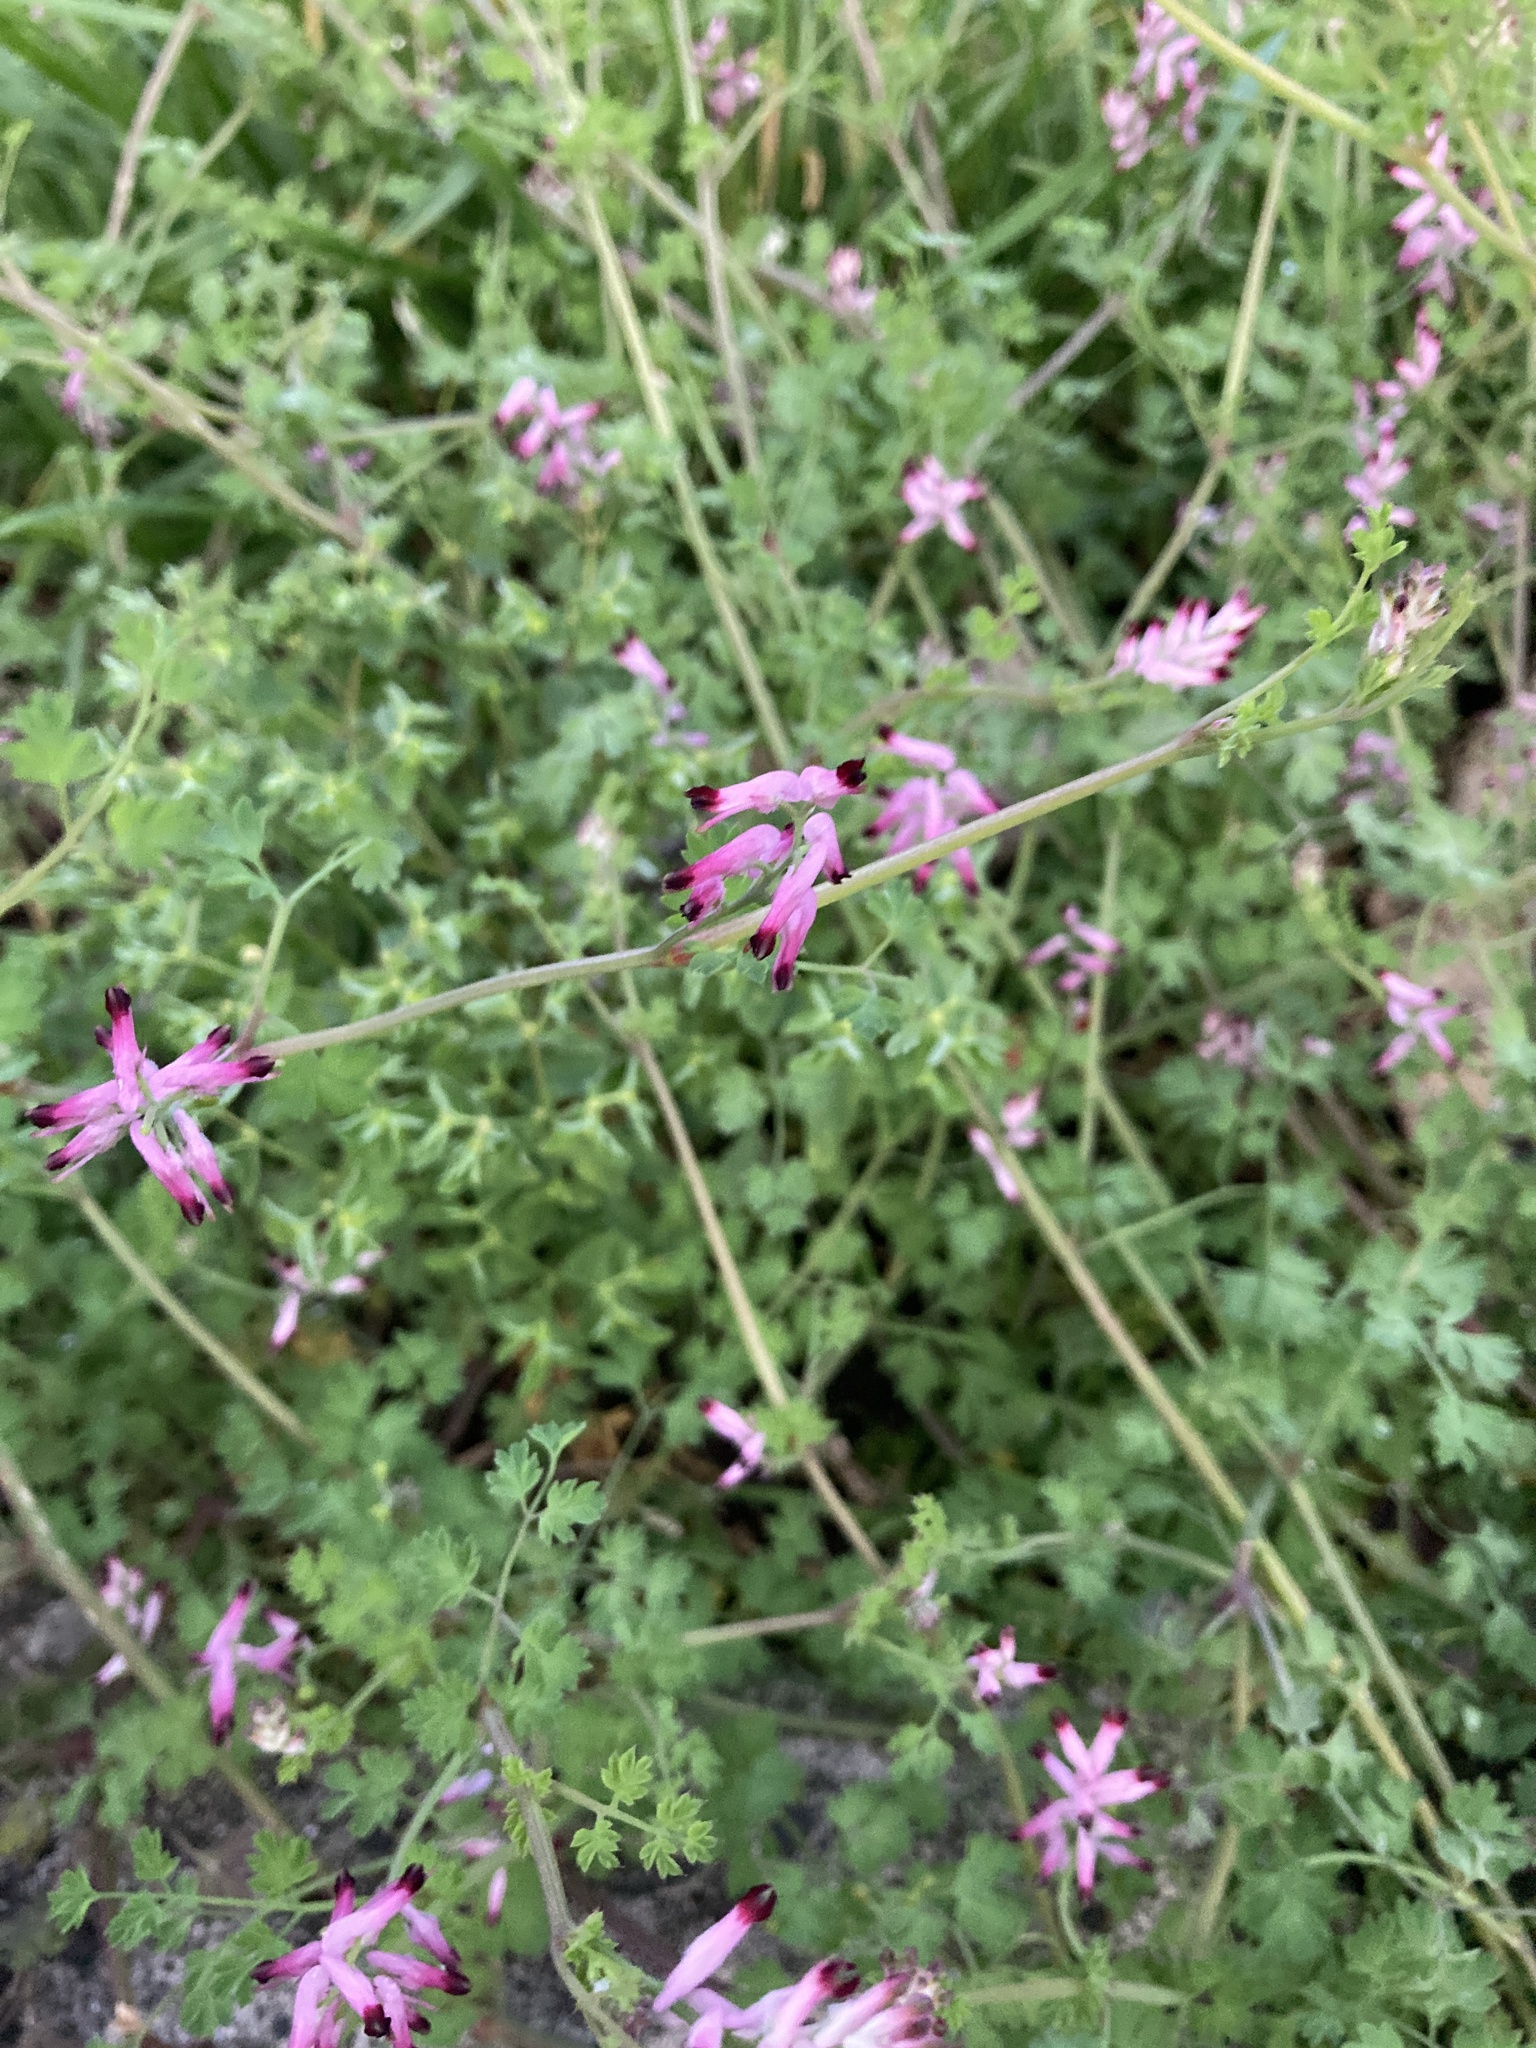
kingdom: Plantae
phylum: Tracheophyta
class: Magnoliopsida
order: Ranunculales
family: Papaveraceae
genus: Fumaria
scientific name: Fumaria muralis
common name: Common ramping-fumitory
